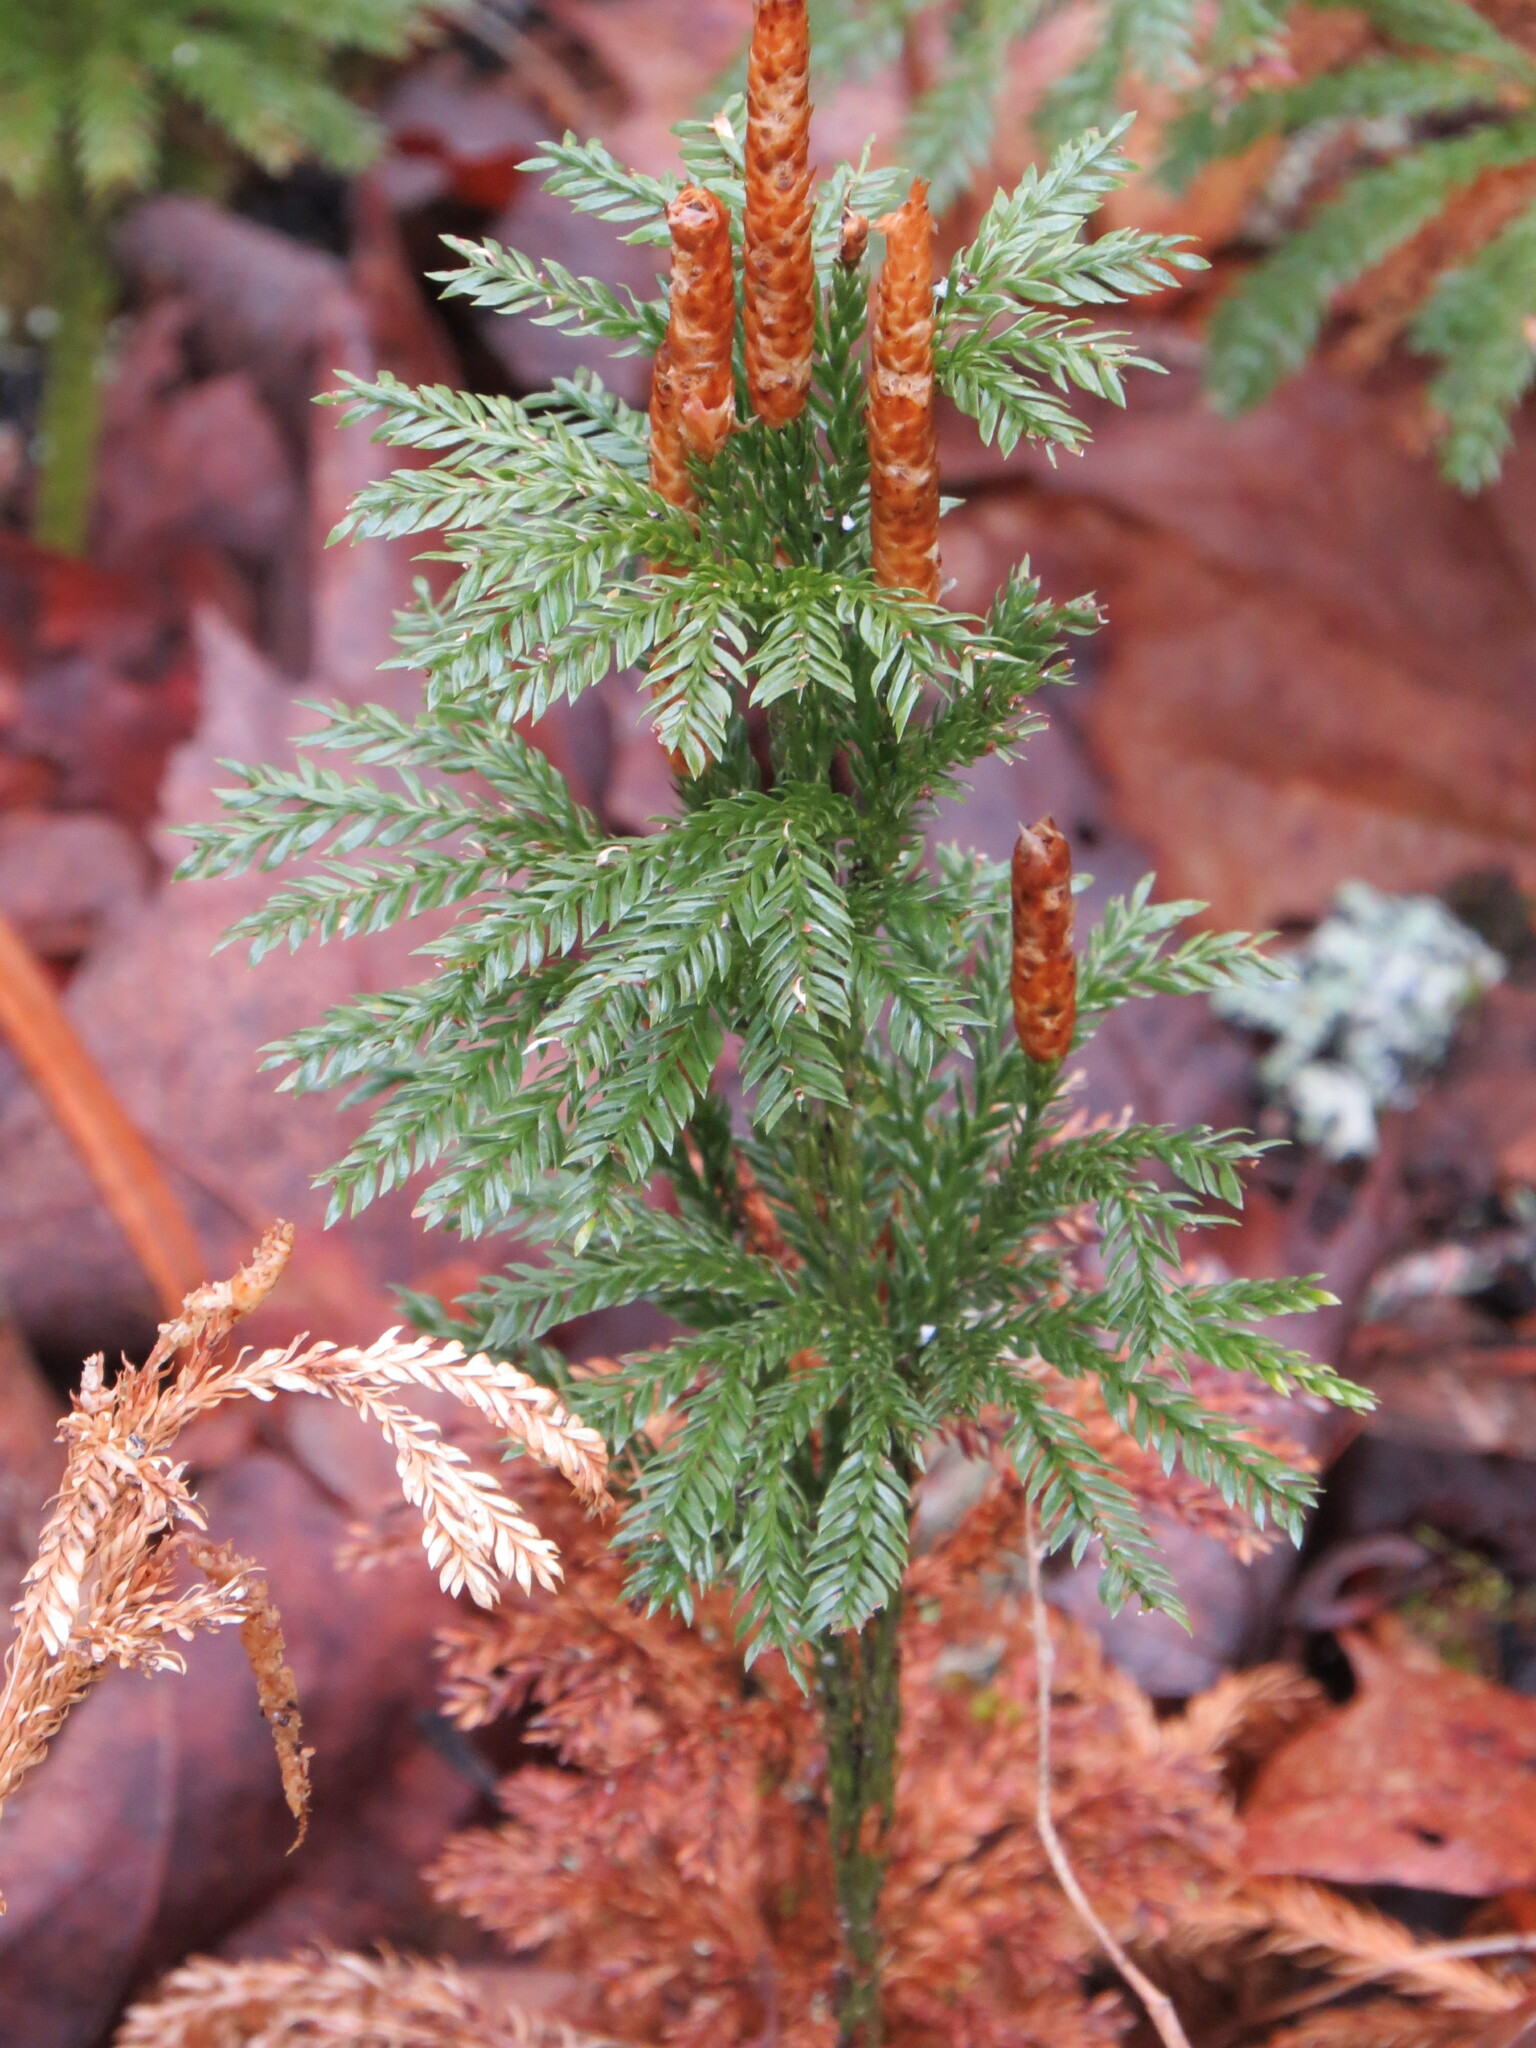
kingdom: Plantae
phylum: Tracheophyta
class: Lycopodiopsida
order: Lycopodiales
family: Lycopodiaceae
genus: Dendrolycopodium
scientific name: Dendrolycopodium obscurum
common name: Common ground-pine
